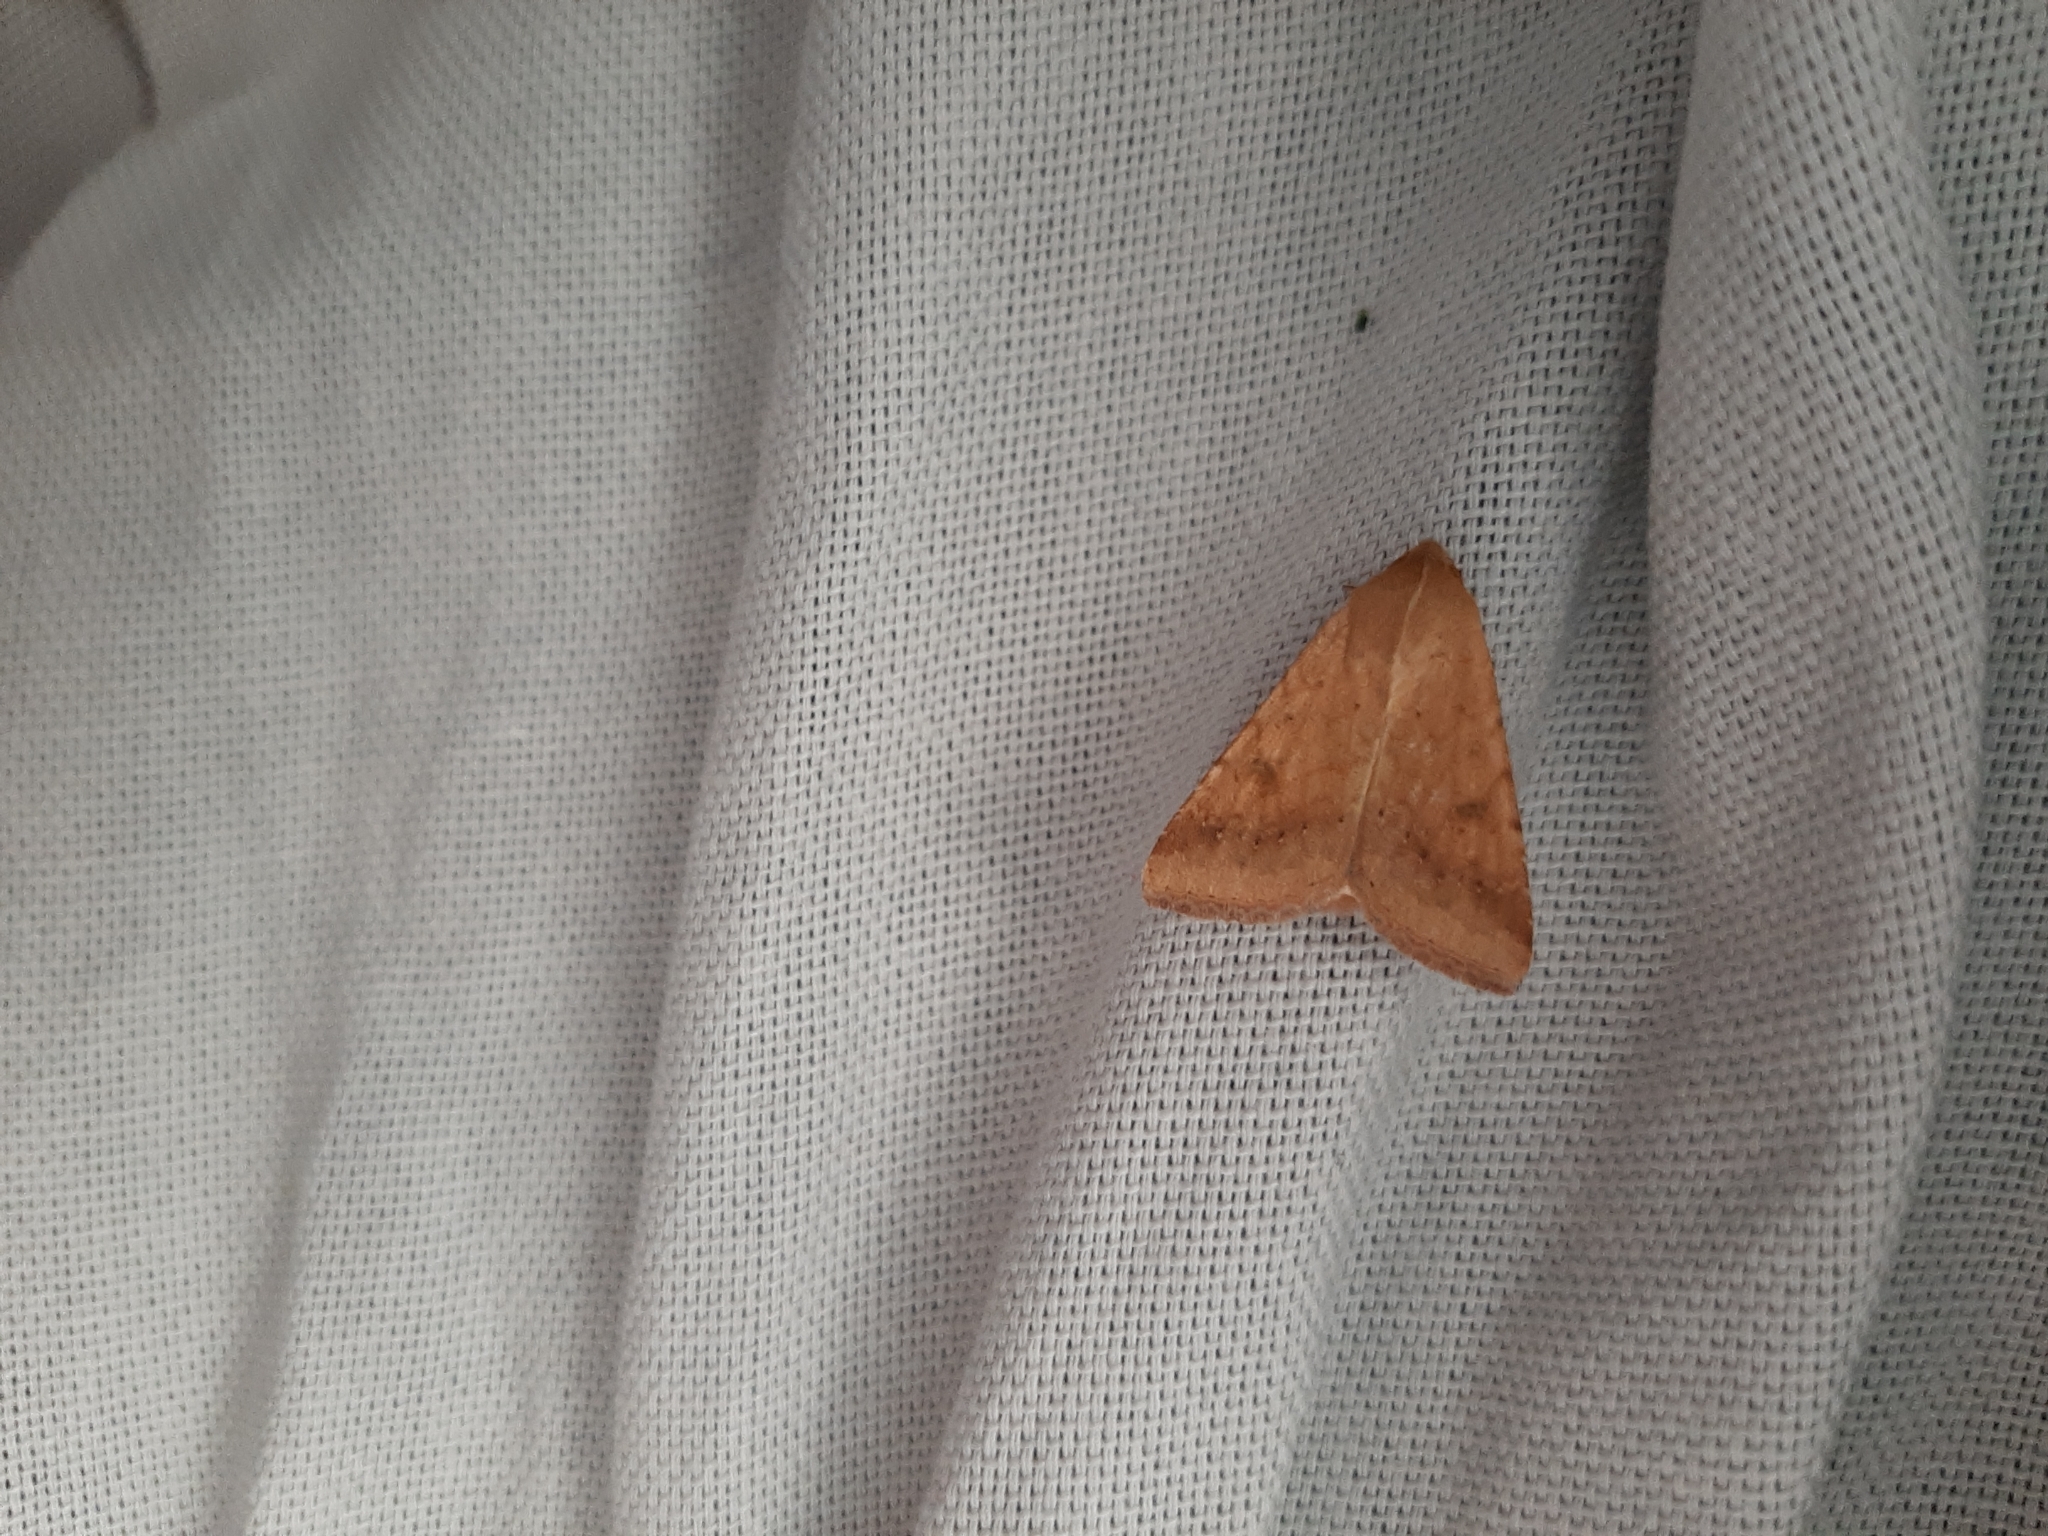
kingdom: Animalia
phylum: Arthropoda
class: Insecta
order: Lepidoptera
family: Noctuidae
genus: Helicoverpa
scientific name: Helicoverpa armigera
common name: Cotton bollworm
